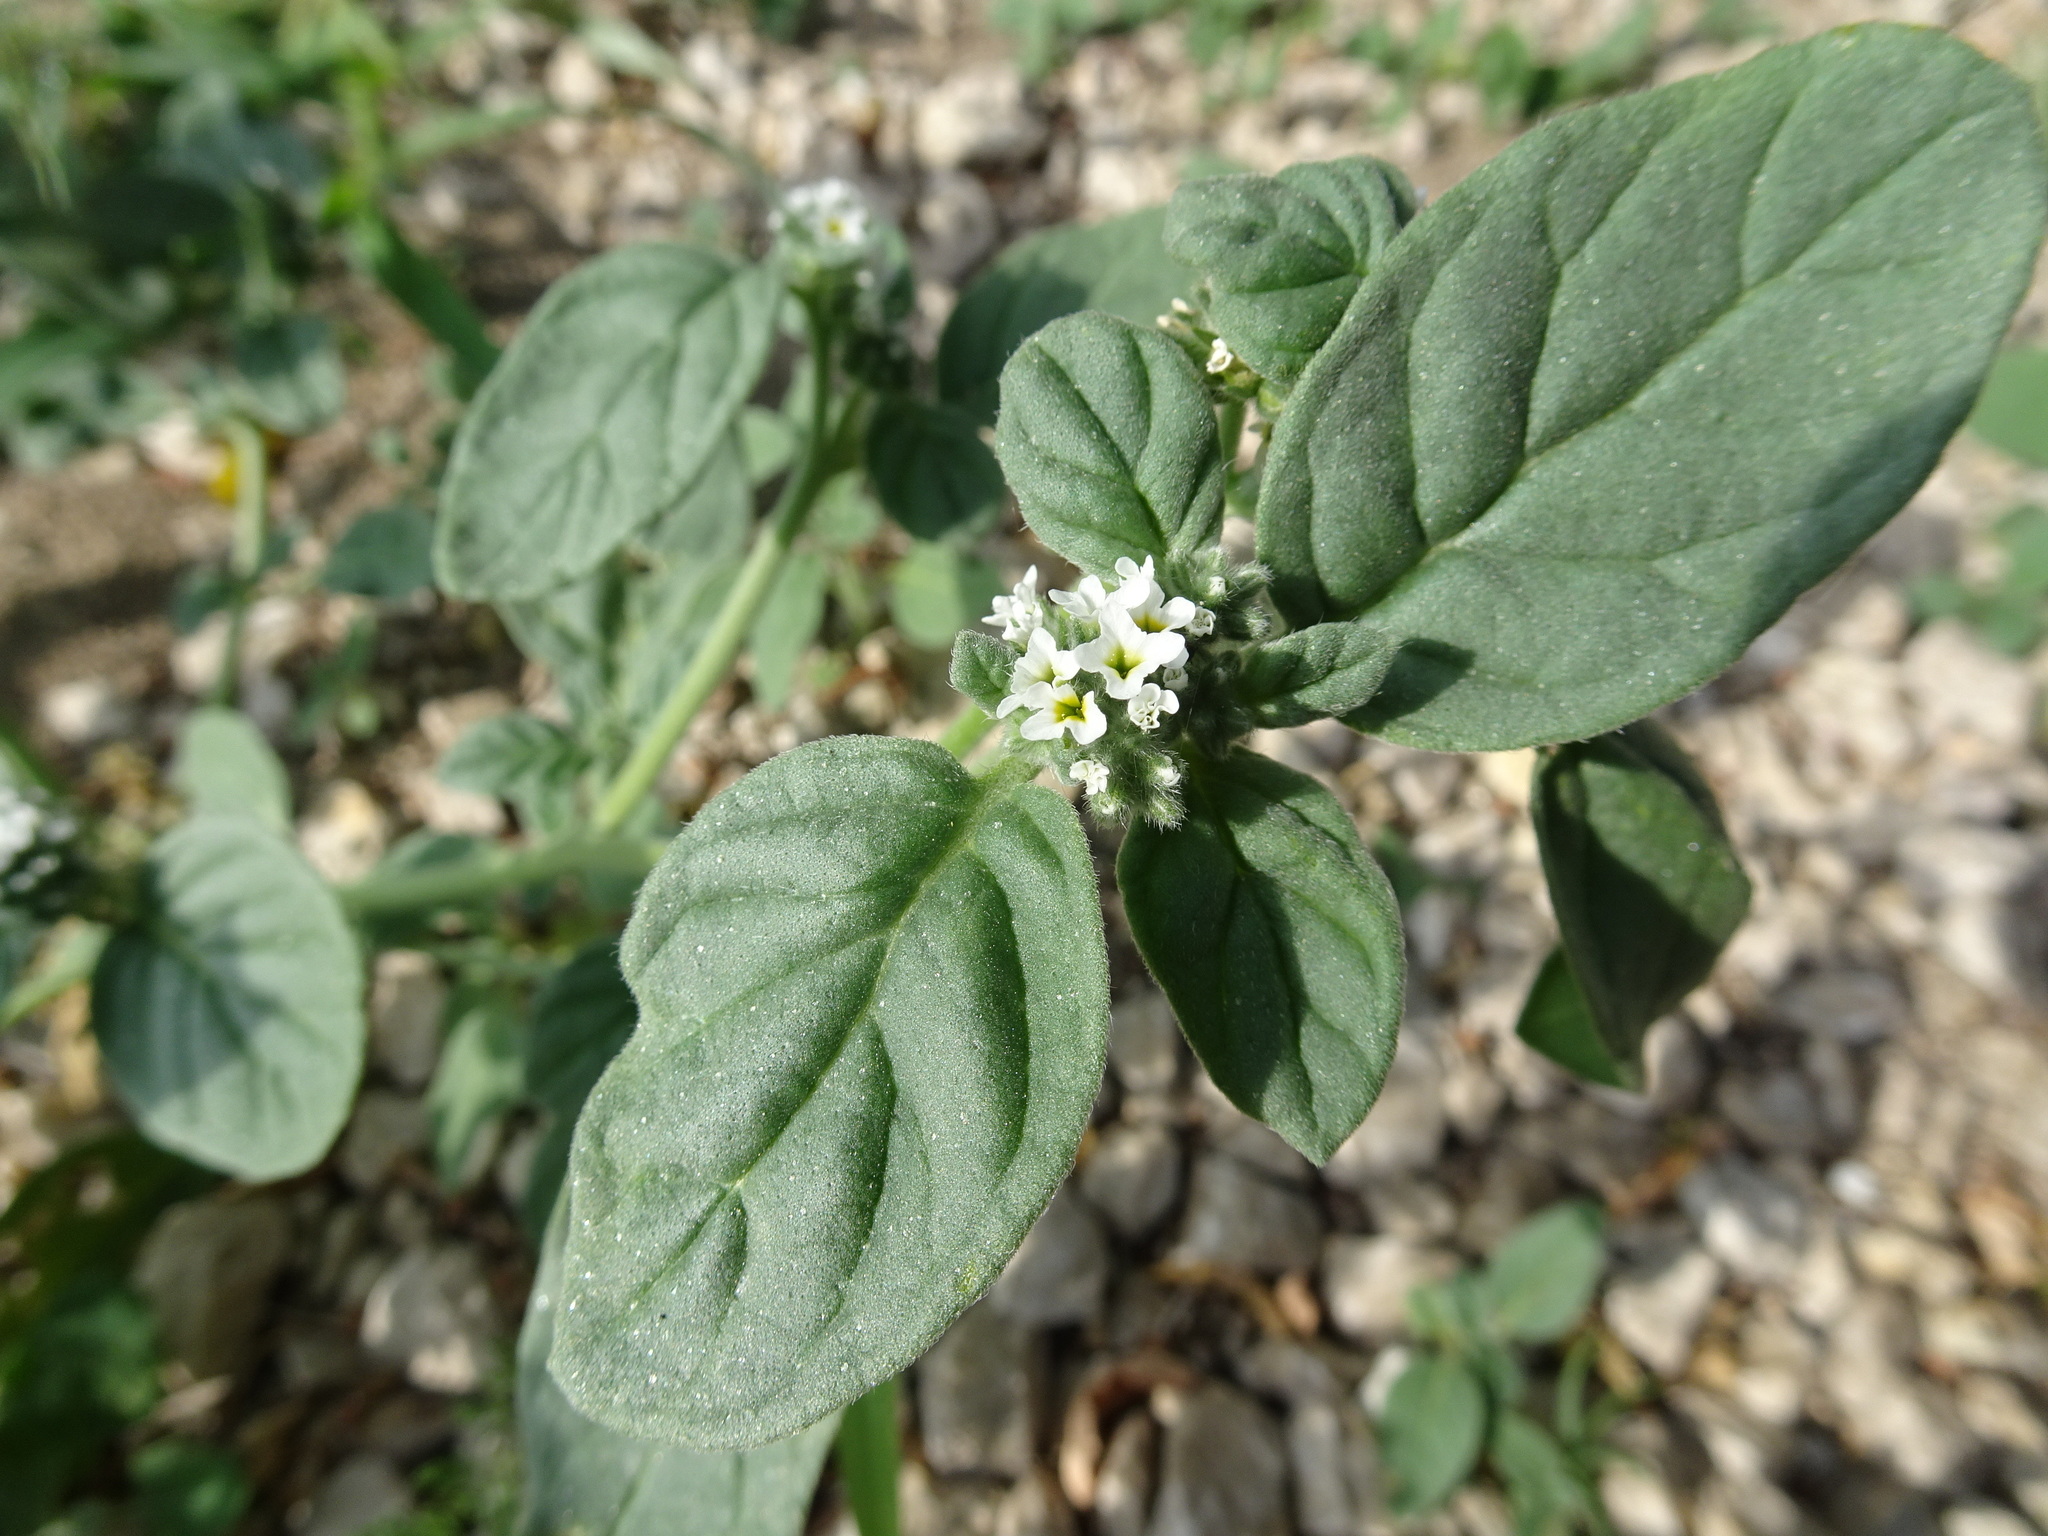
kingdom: Plantae
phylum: Tracheophyta
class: Magnoliopsida
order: Boraginales
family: Heliotropiaceae
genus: Heliotropium
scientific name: Heliotropium europaeum
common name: European heliotrope
